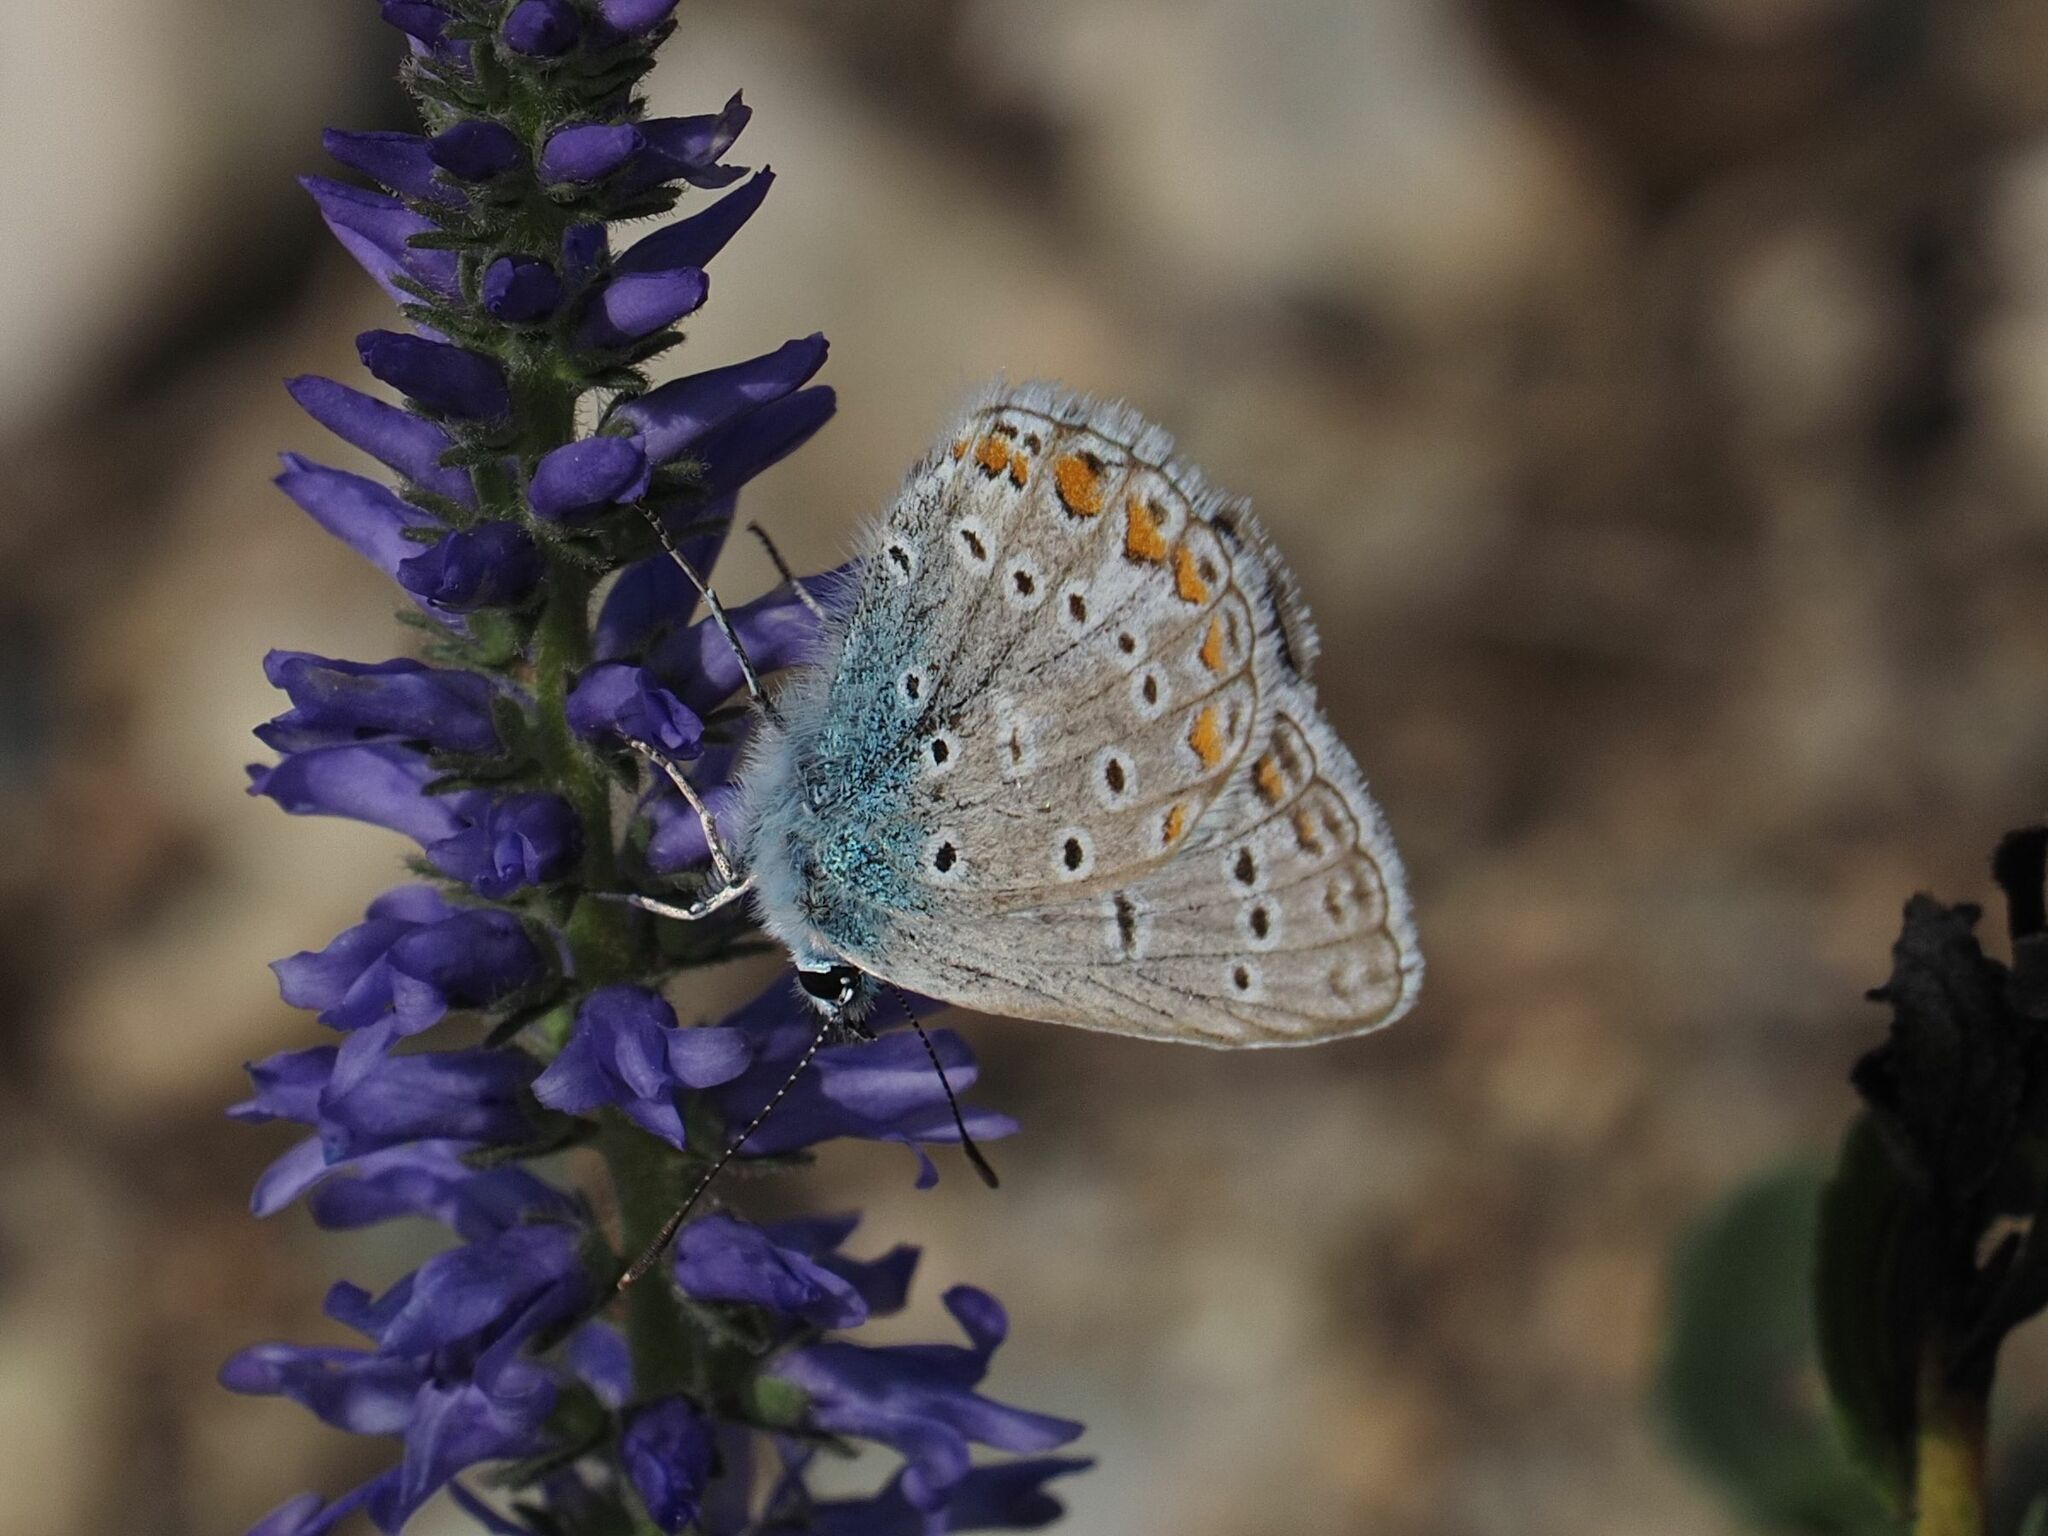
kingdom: Animalia
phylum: Arthropoda
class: Insecta
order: Lepidoptera
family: Lycaenidae
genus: Polyommatus
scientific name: Polyommatus icarus
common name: Common blue
